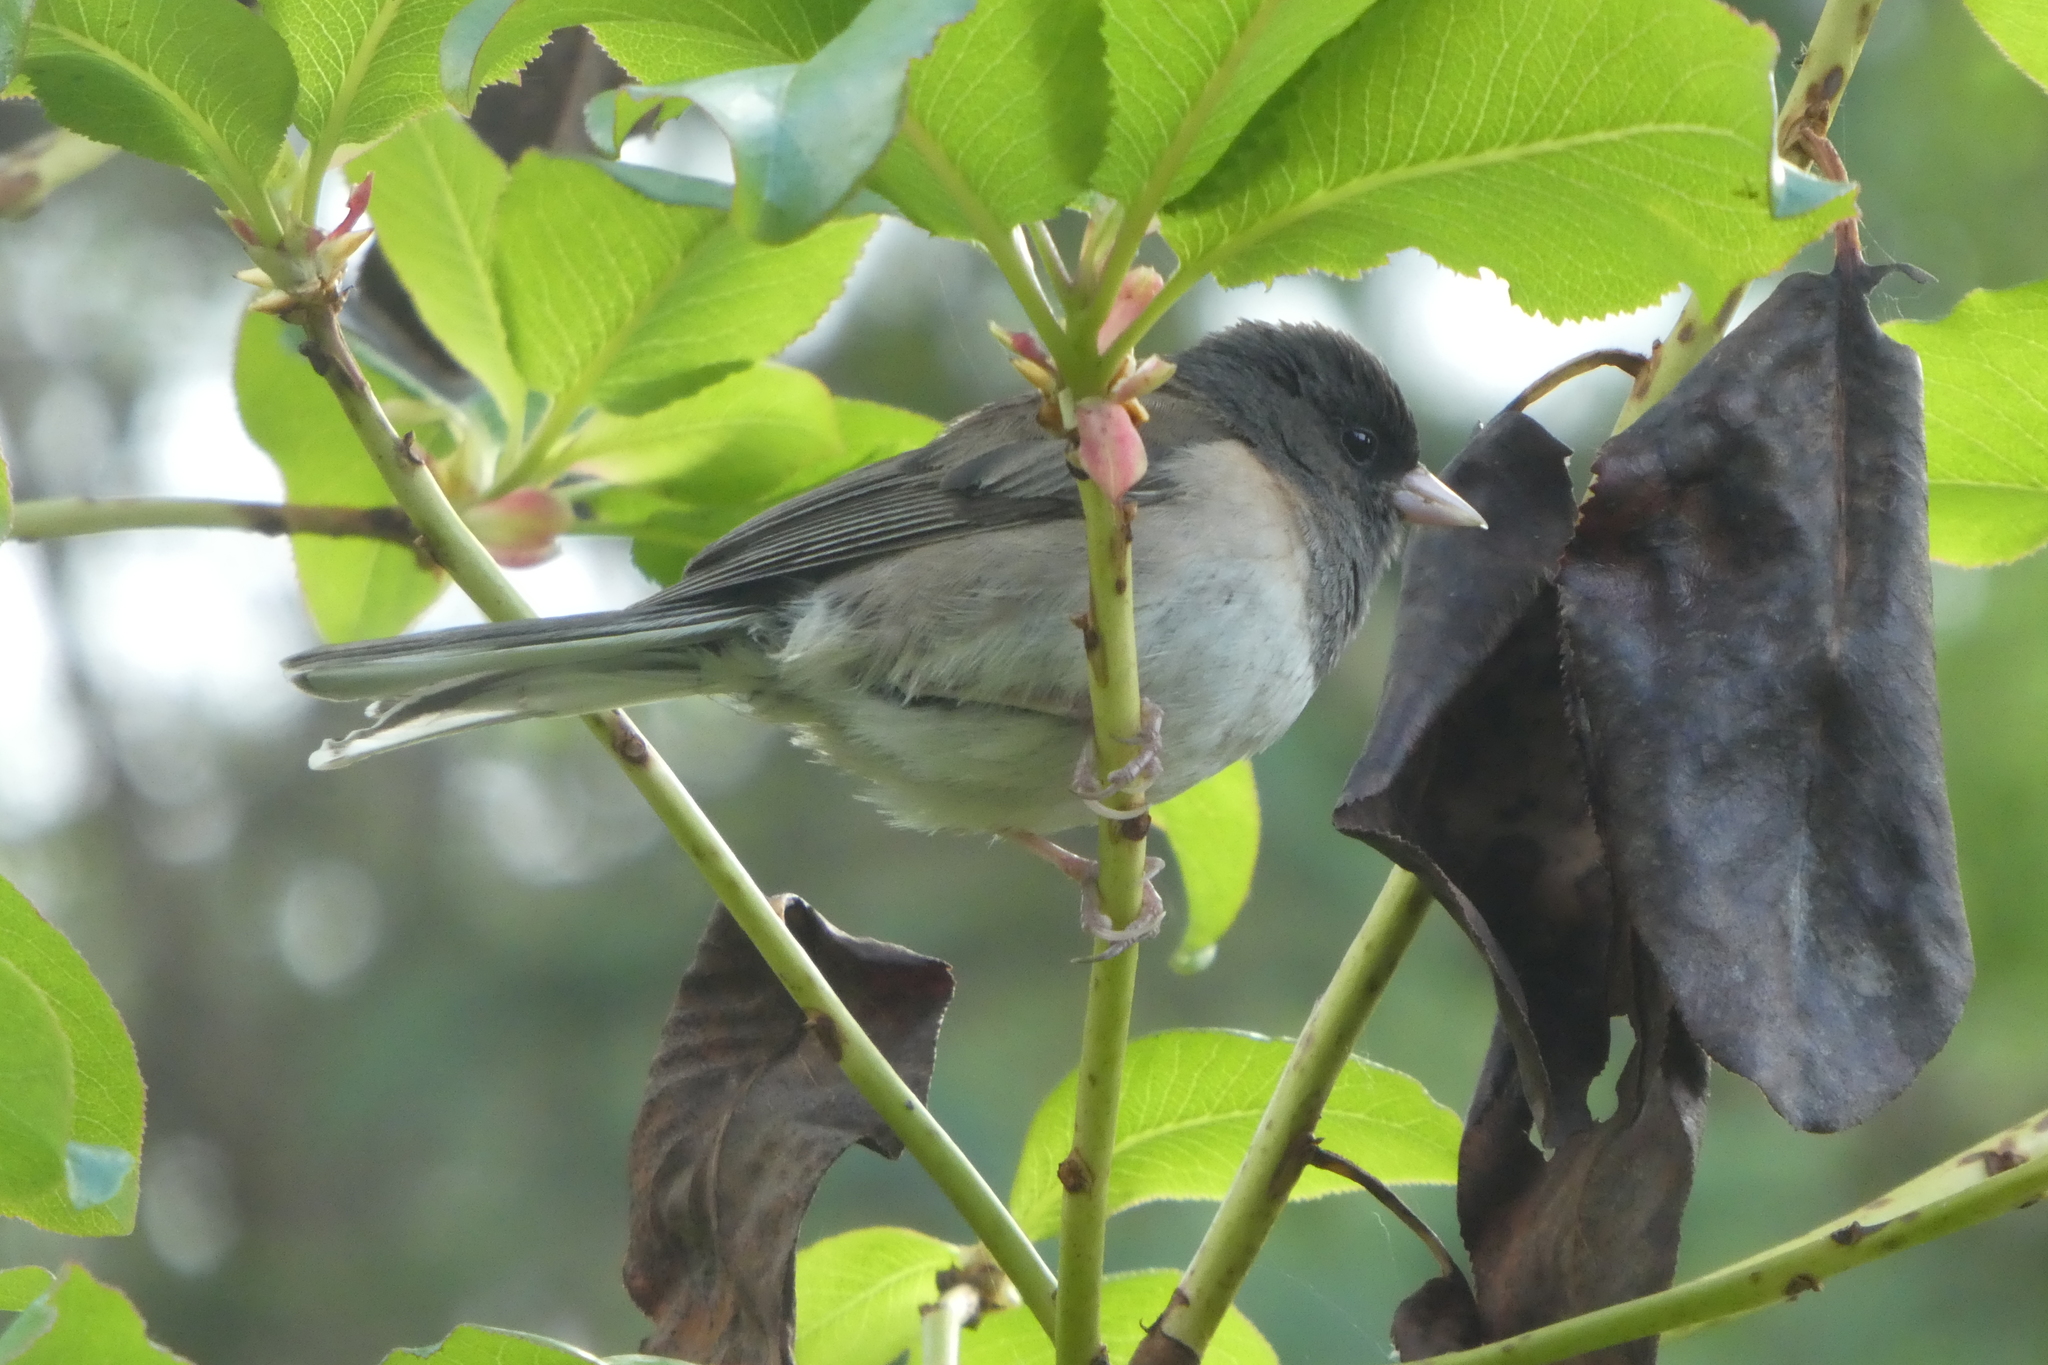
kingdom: Animalia
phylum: Chordata
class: Aves
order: Passeriformes
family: Passerellidae
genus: Junco
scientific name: Junco hyemalis
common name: Dark-eyed junco
